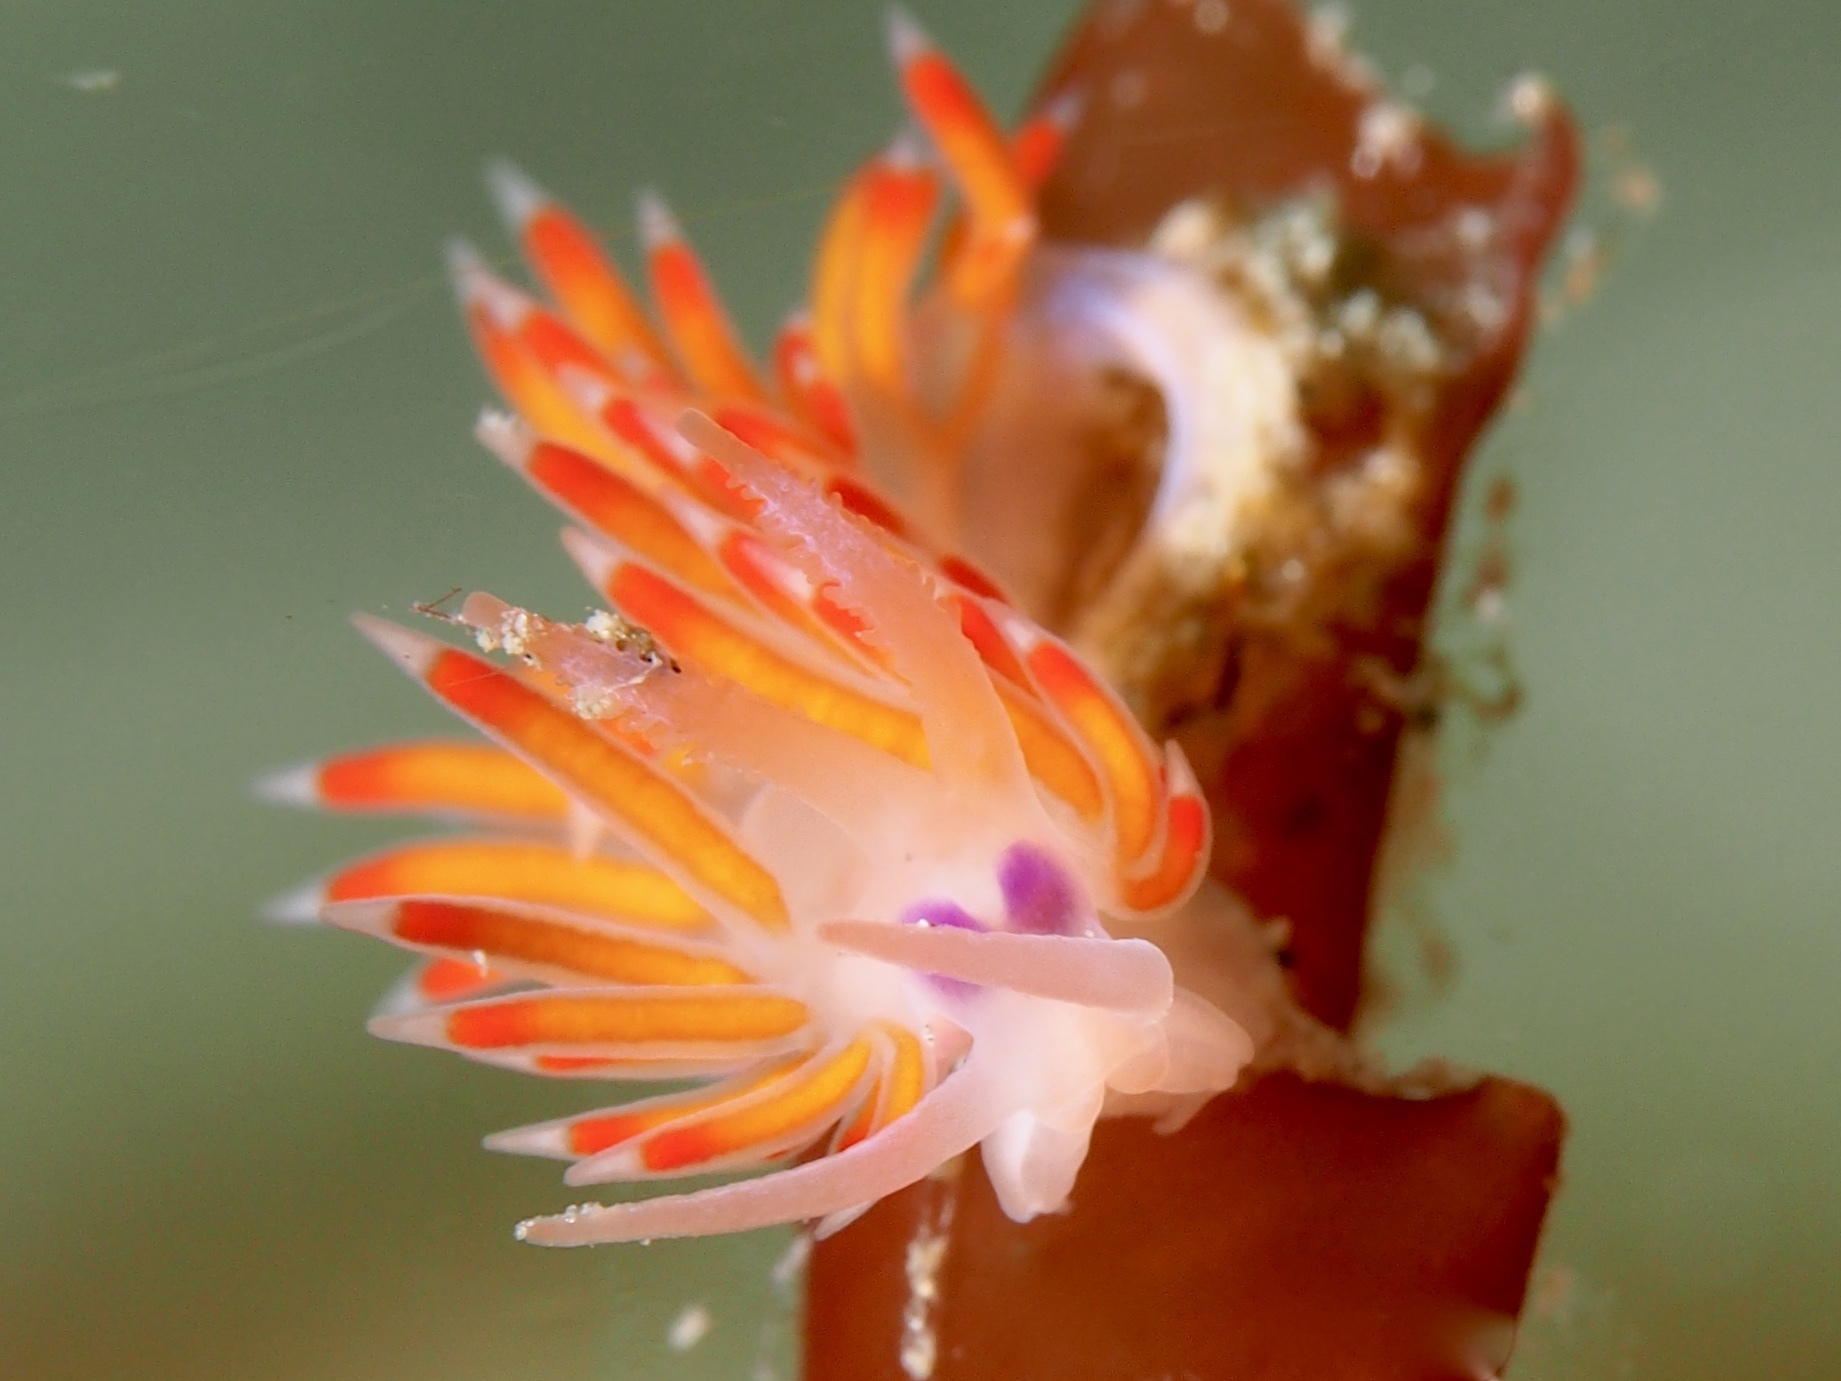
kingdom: Animalia
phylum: Mollusca
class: Gastropoda
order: Nudibranchia
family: Flabellinidae
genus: Coryphellina
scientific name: Coryphellina poenicia
